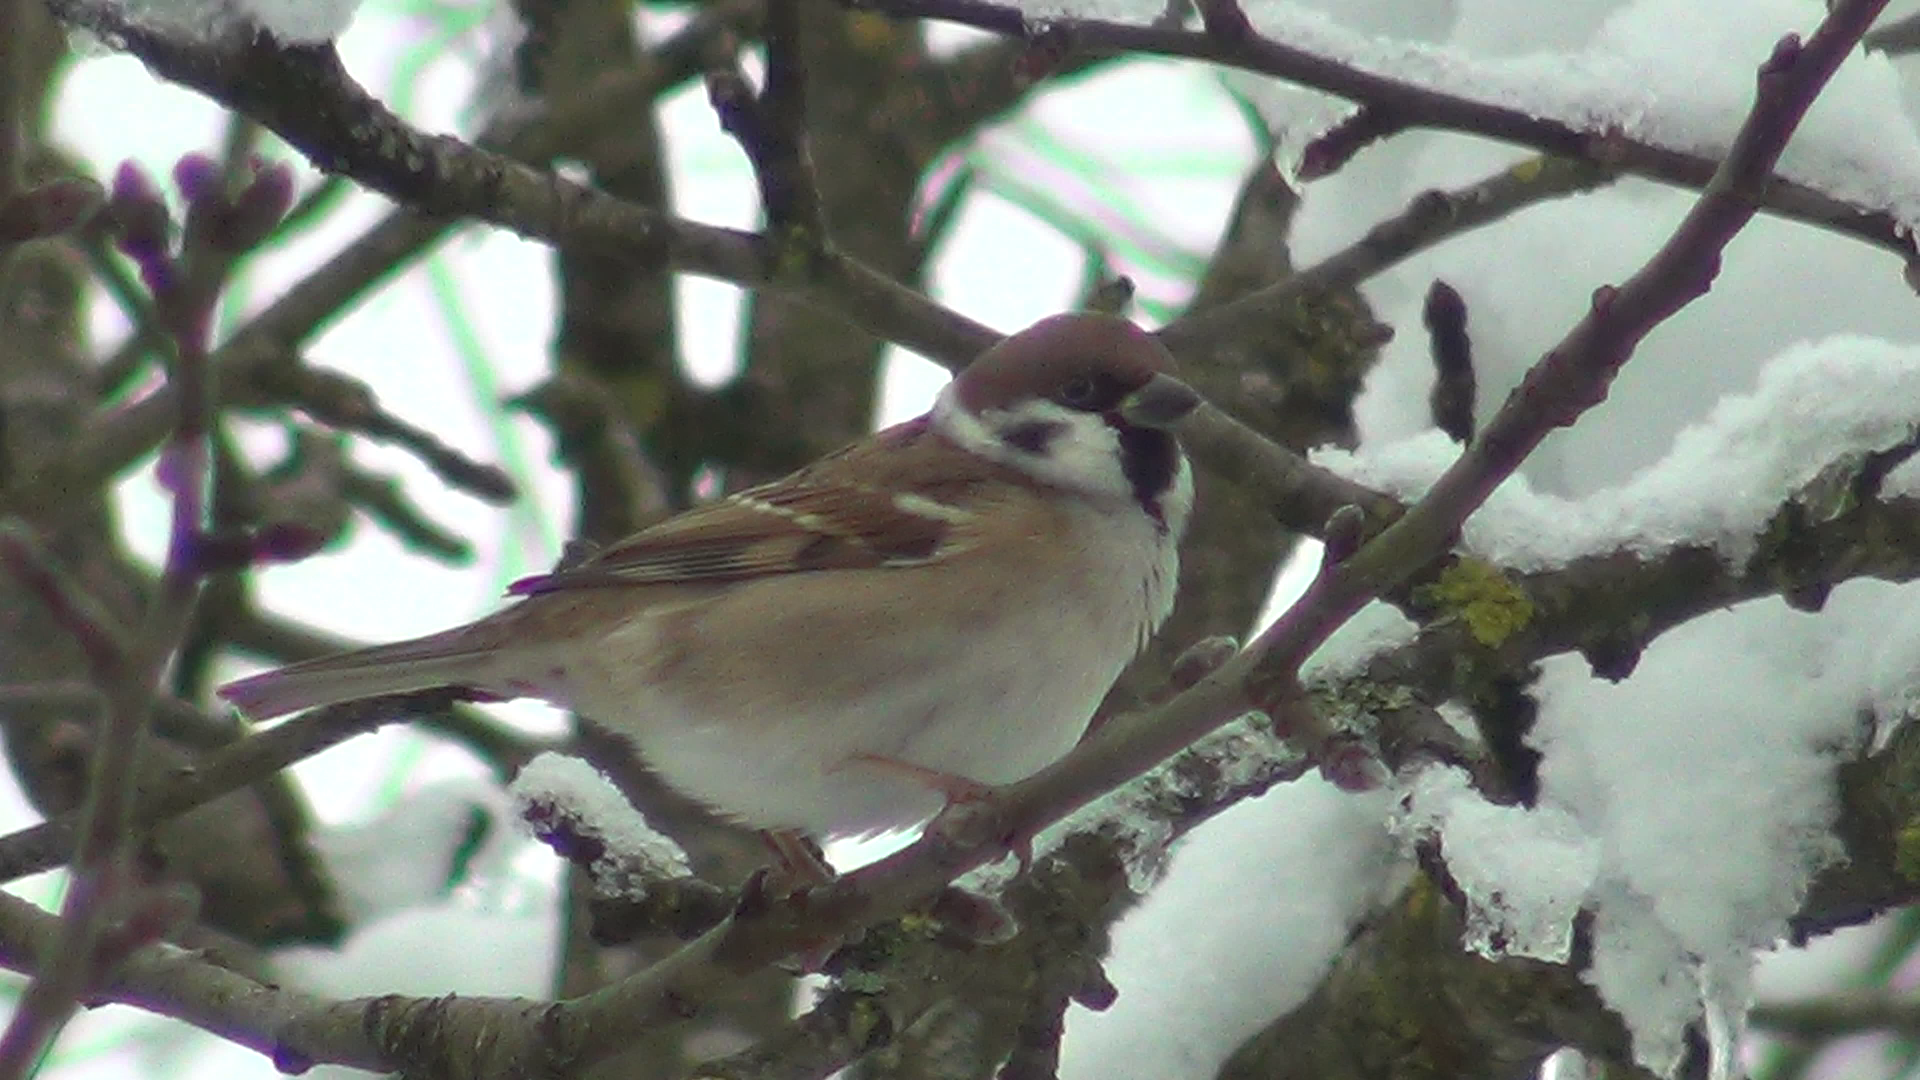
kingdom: Animalia
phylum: Chordata
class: Aves
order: Passeriformes
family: Passeridae
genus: Passer
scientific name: Passer montanus
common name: Eurasian tree sparrow
